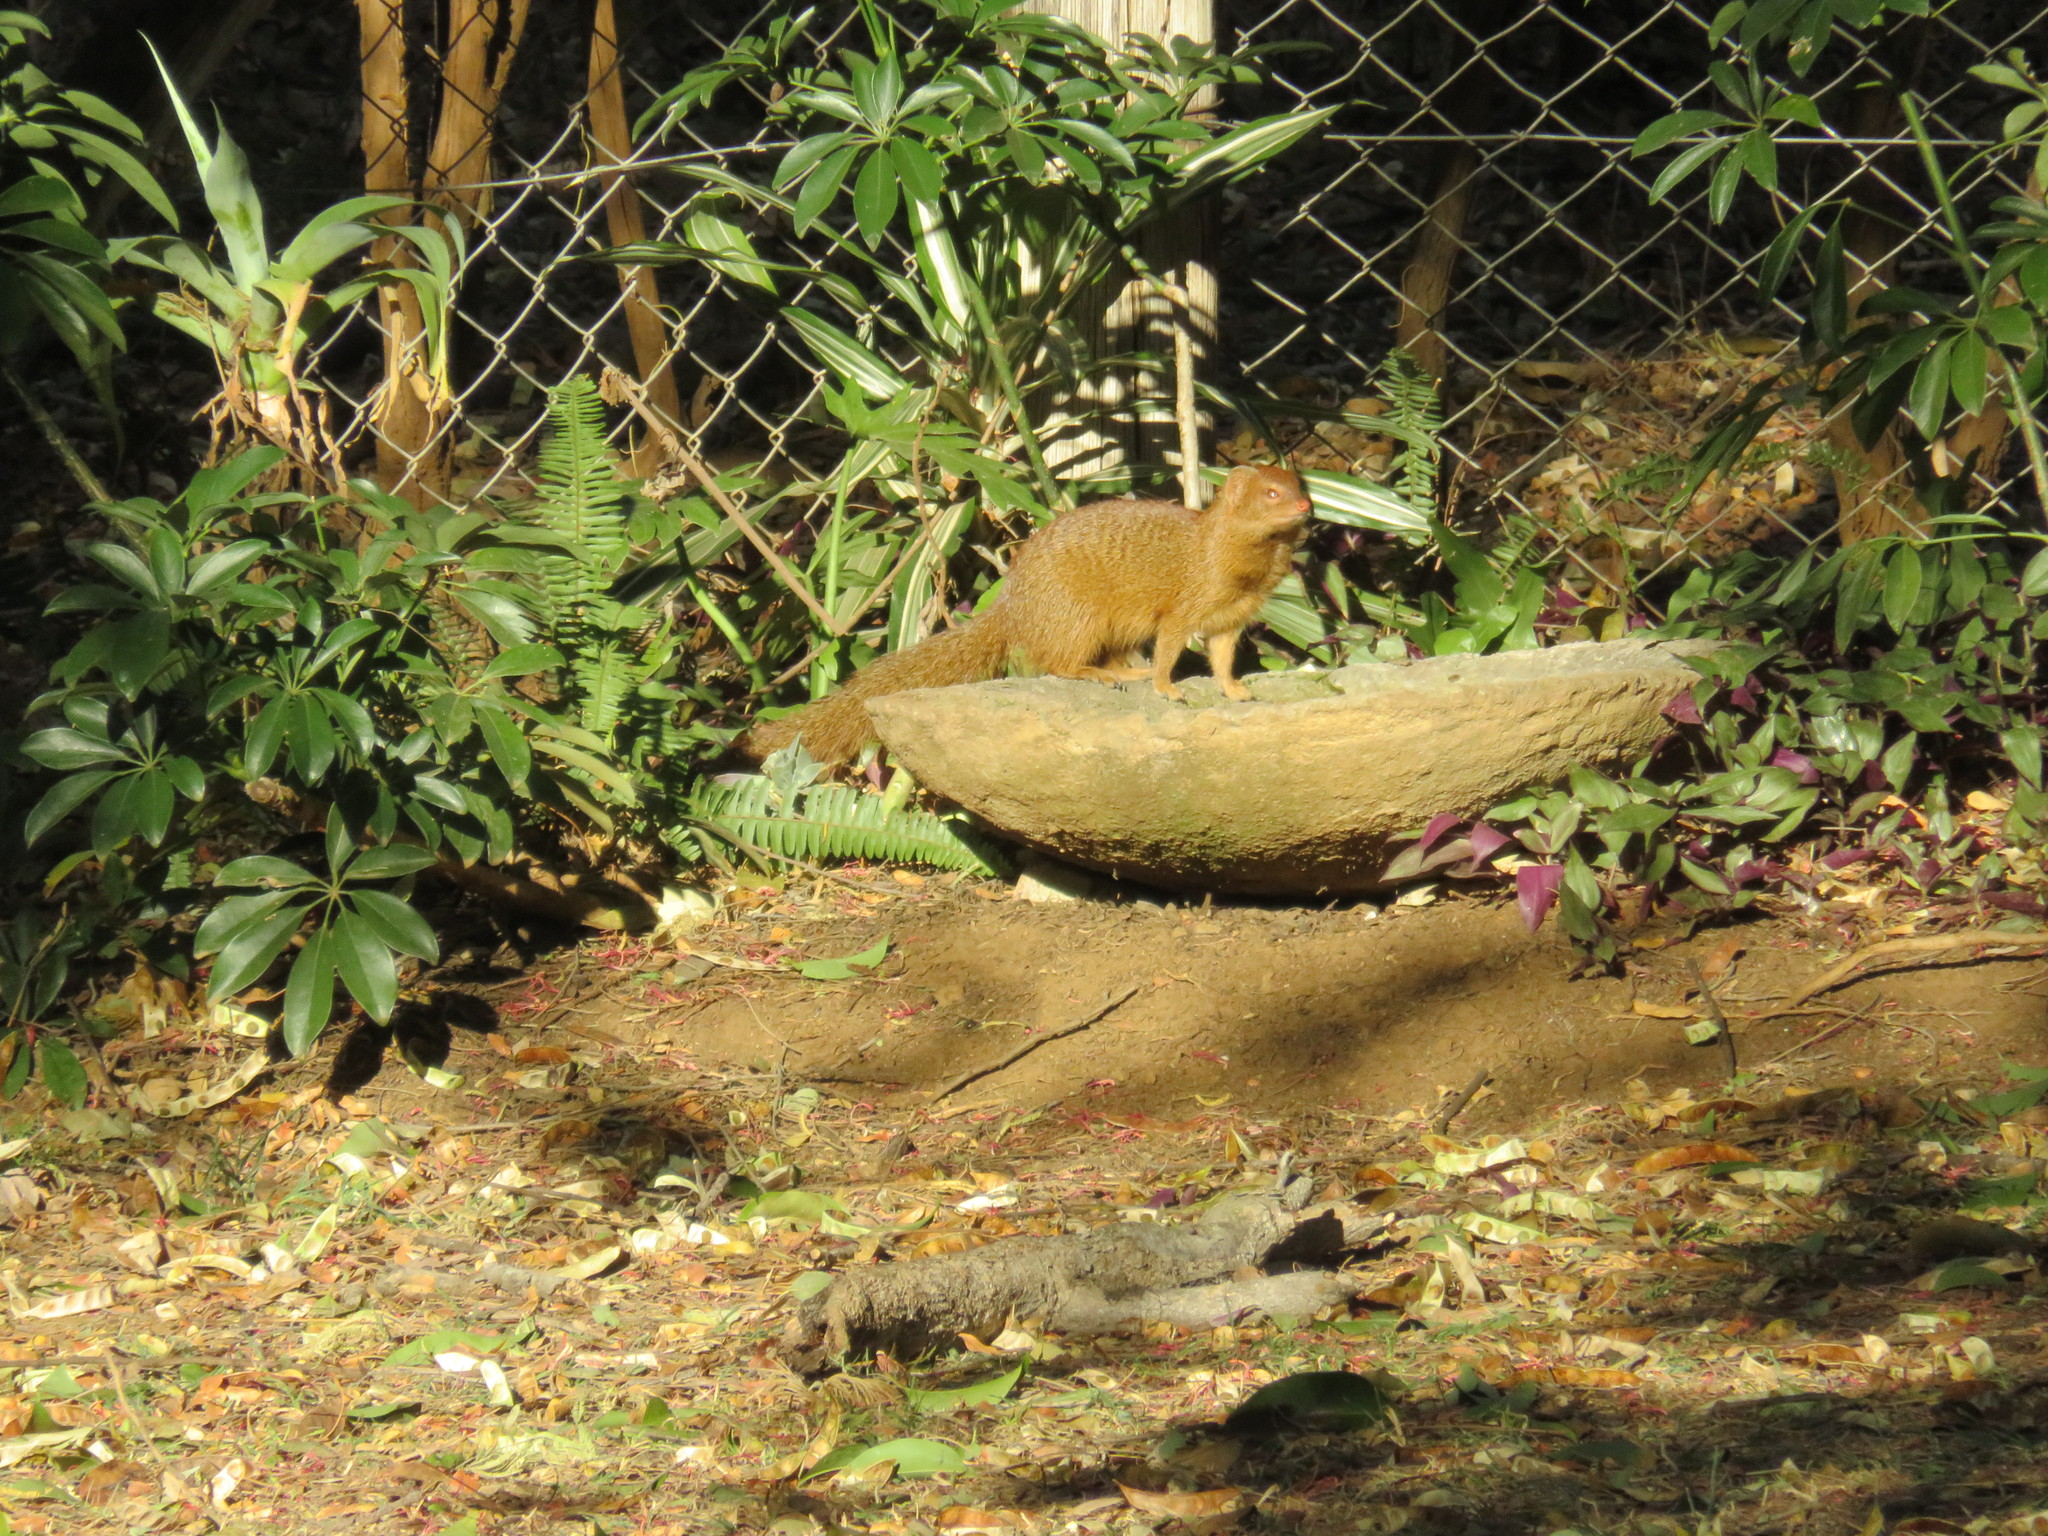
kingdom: Animalia
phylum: Chordata
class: Mammalia
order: Carnivora
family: Herpestidae
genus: Galerella
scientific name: Galerella sanguinea
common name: Slender mongoose
